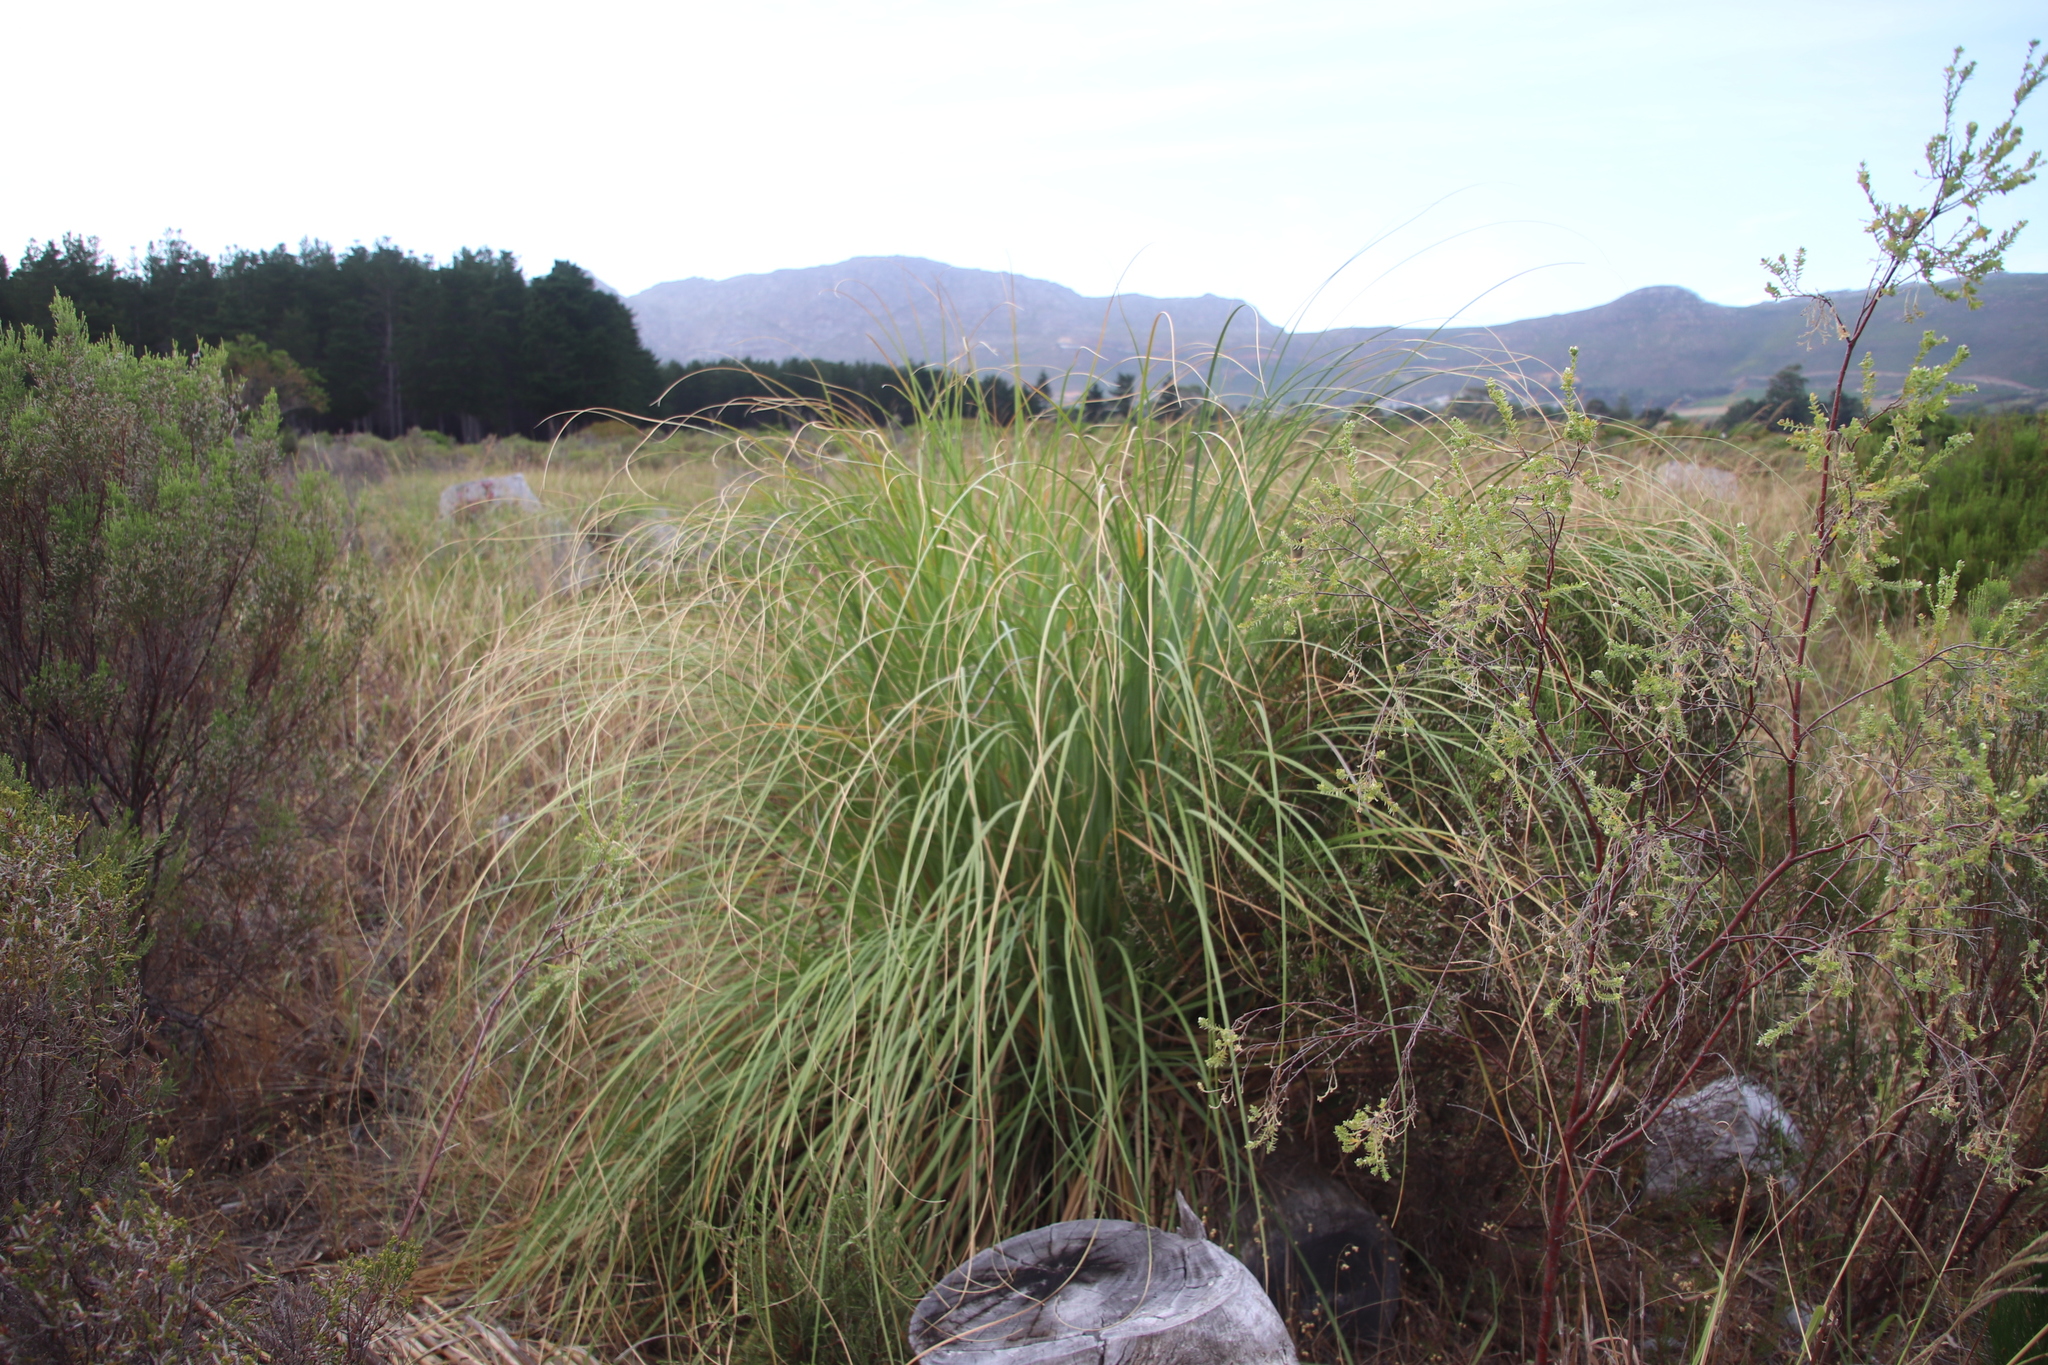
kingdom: Plantae
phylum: Tracheophyta
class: Liliopsida
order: Poales
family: Poaceae
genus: Cortaderia
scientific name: Cortaderia selloana
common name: Uruguayan pampas grass
